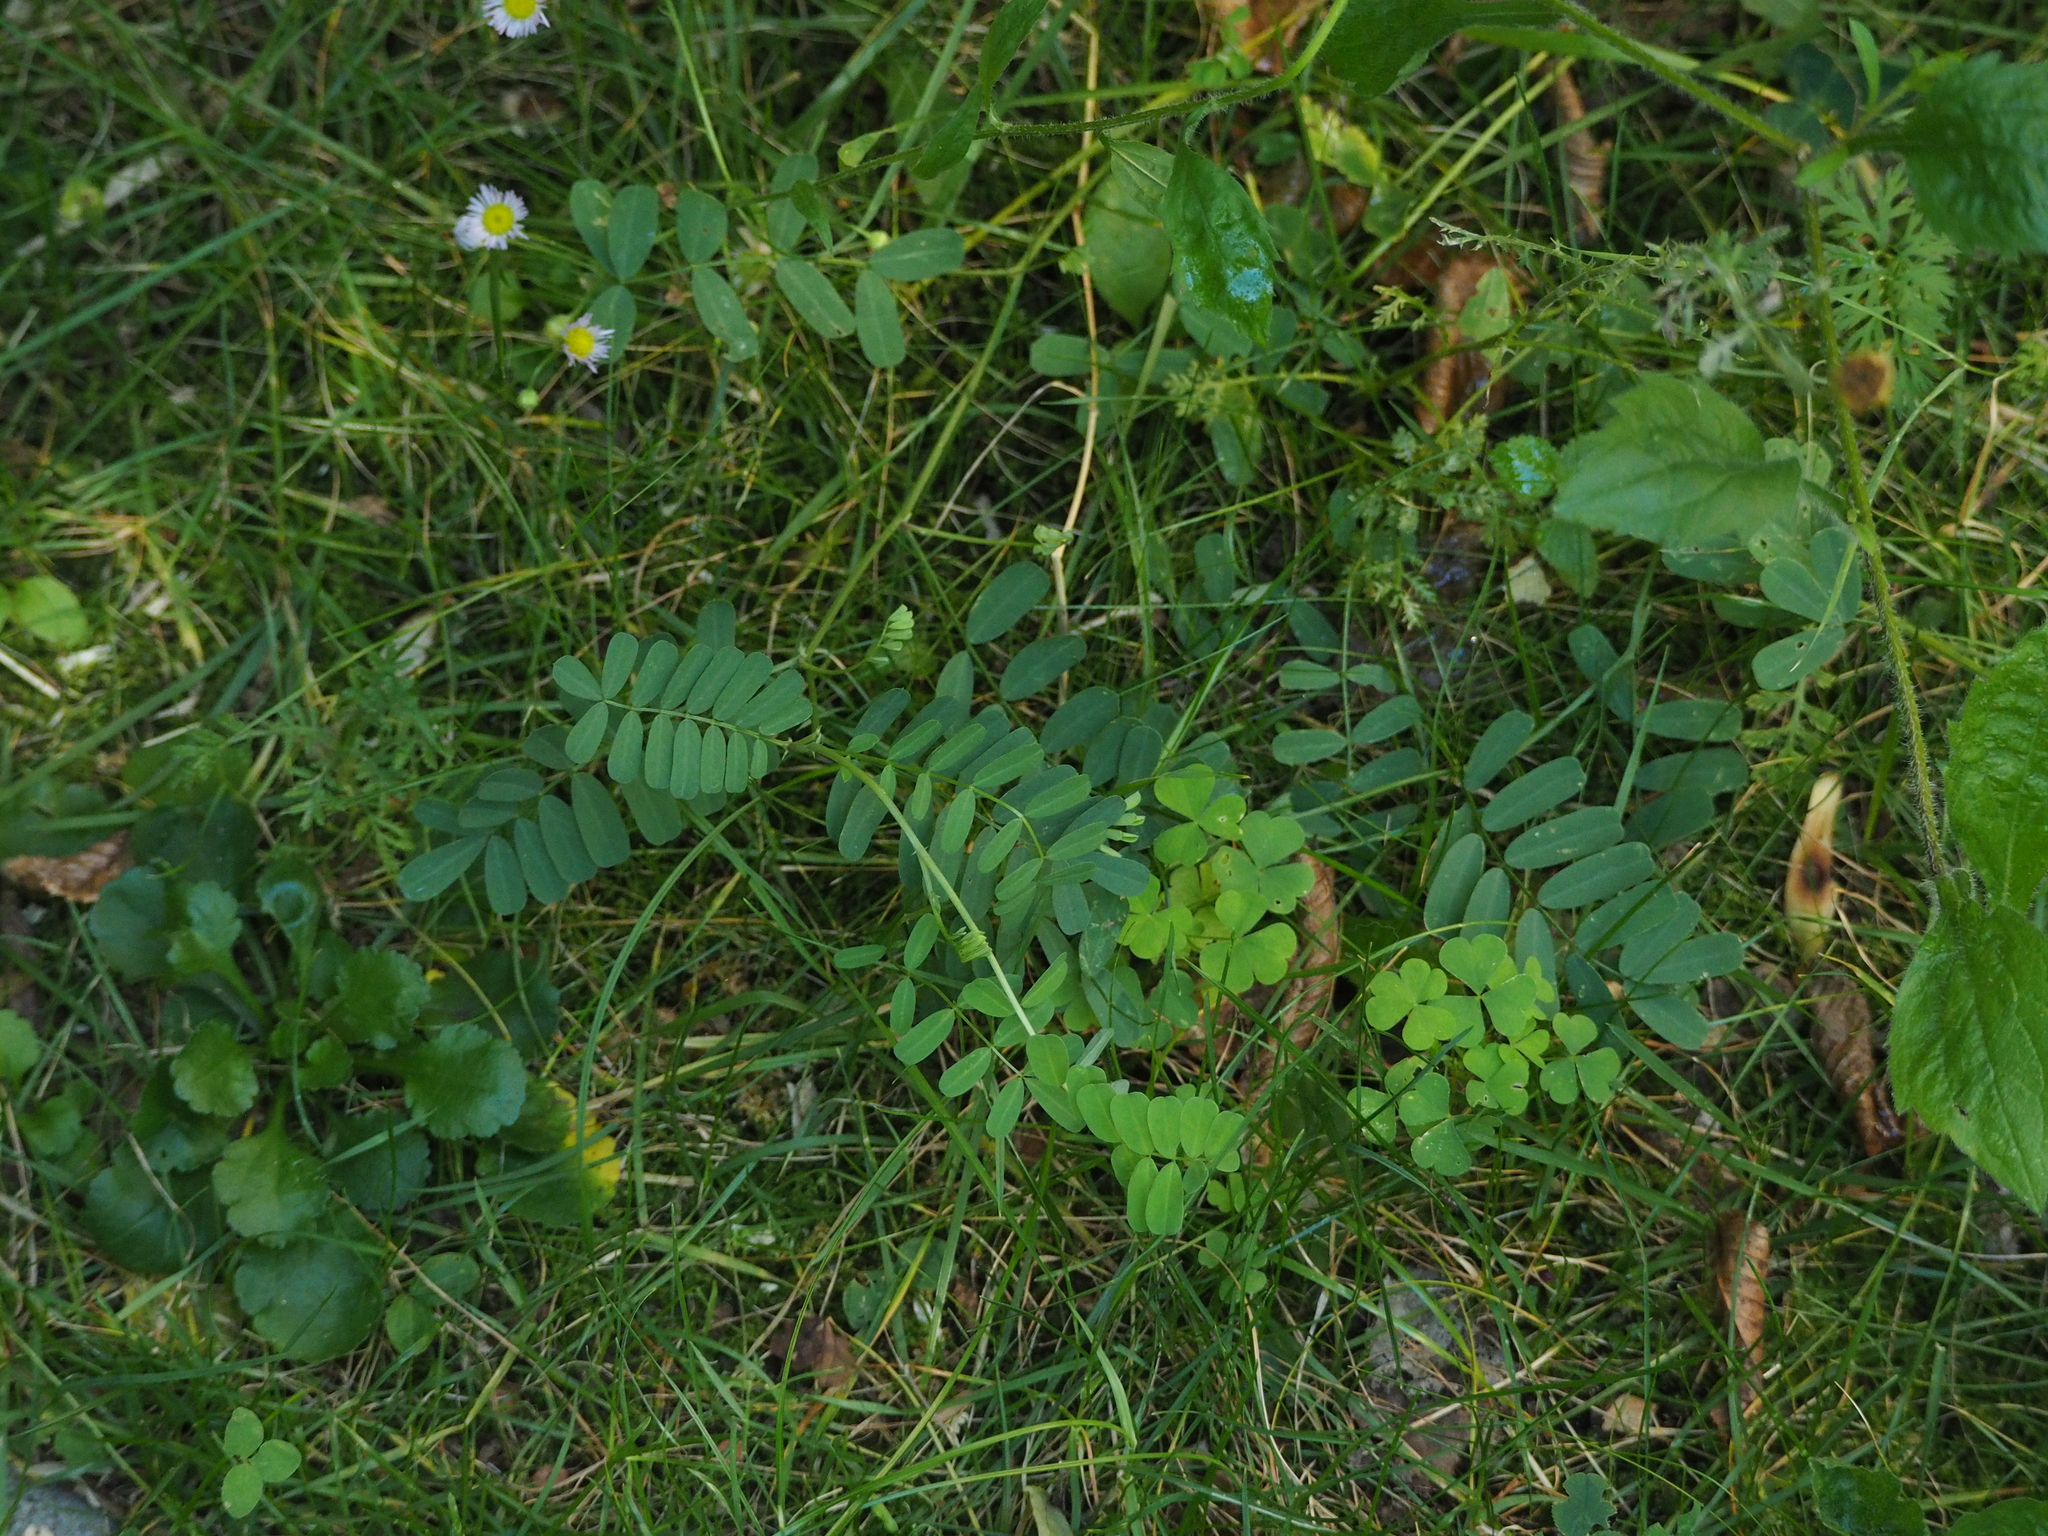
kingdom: Plantae
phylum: Tracheophyta
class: Magnoliopsida
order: Fabales
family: Fabaceae
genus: Coronilla
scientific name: Coronilla varia
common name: Crownvetch
